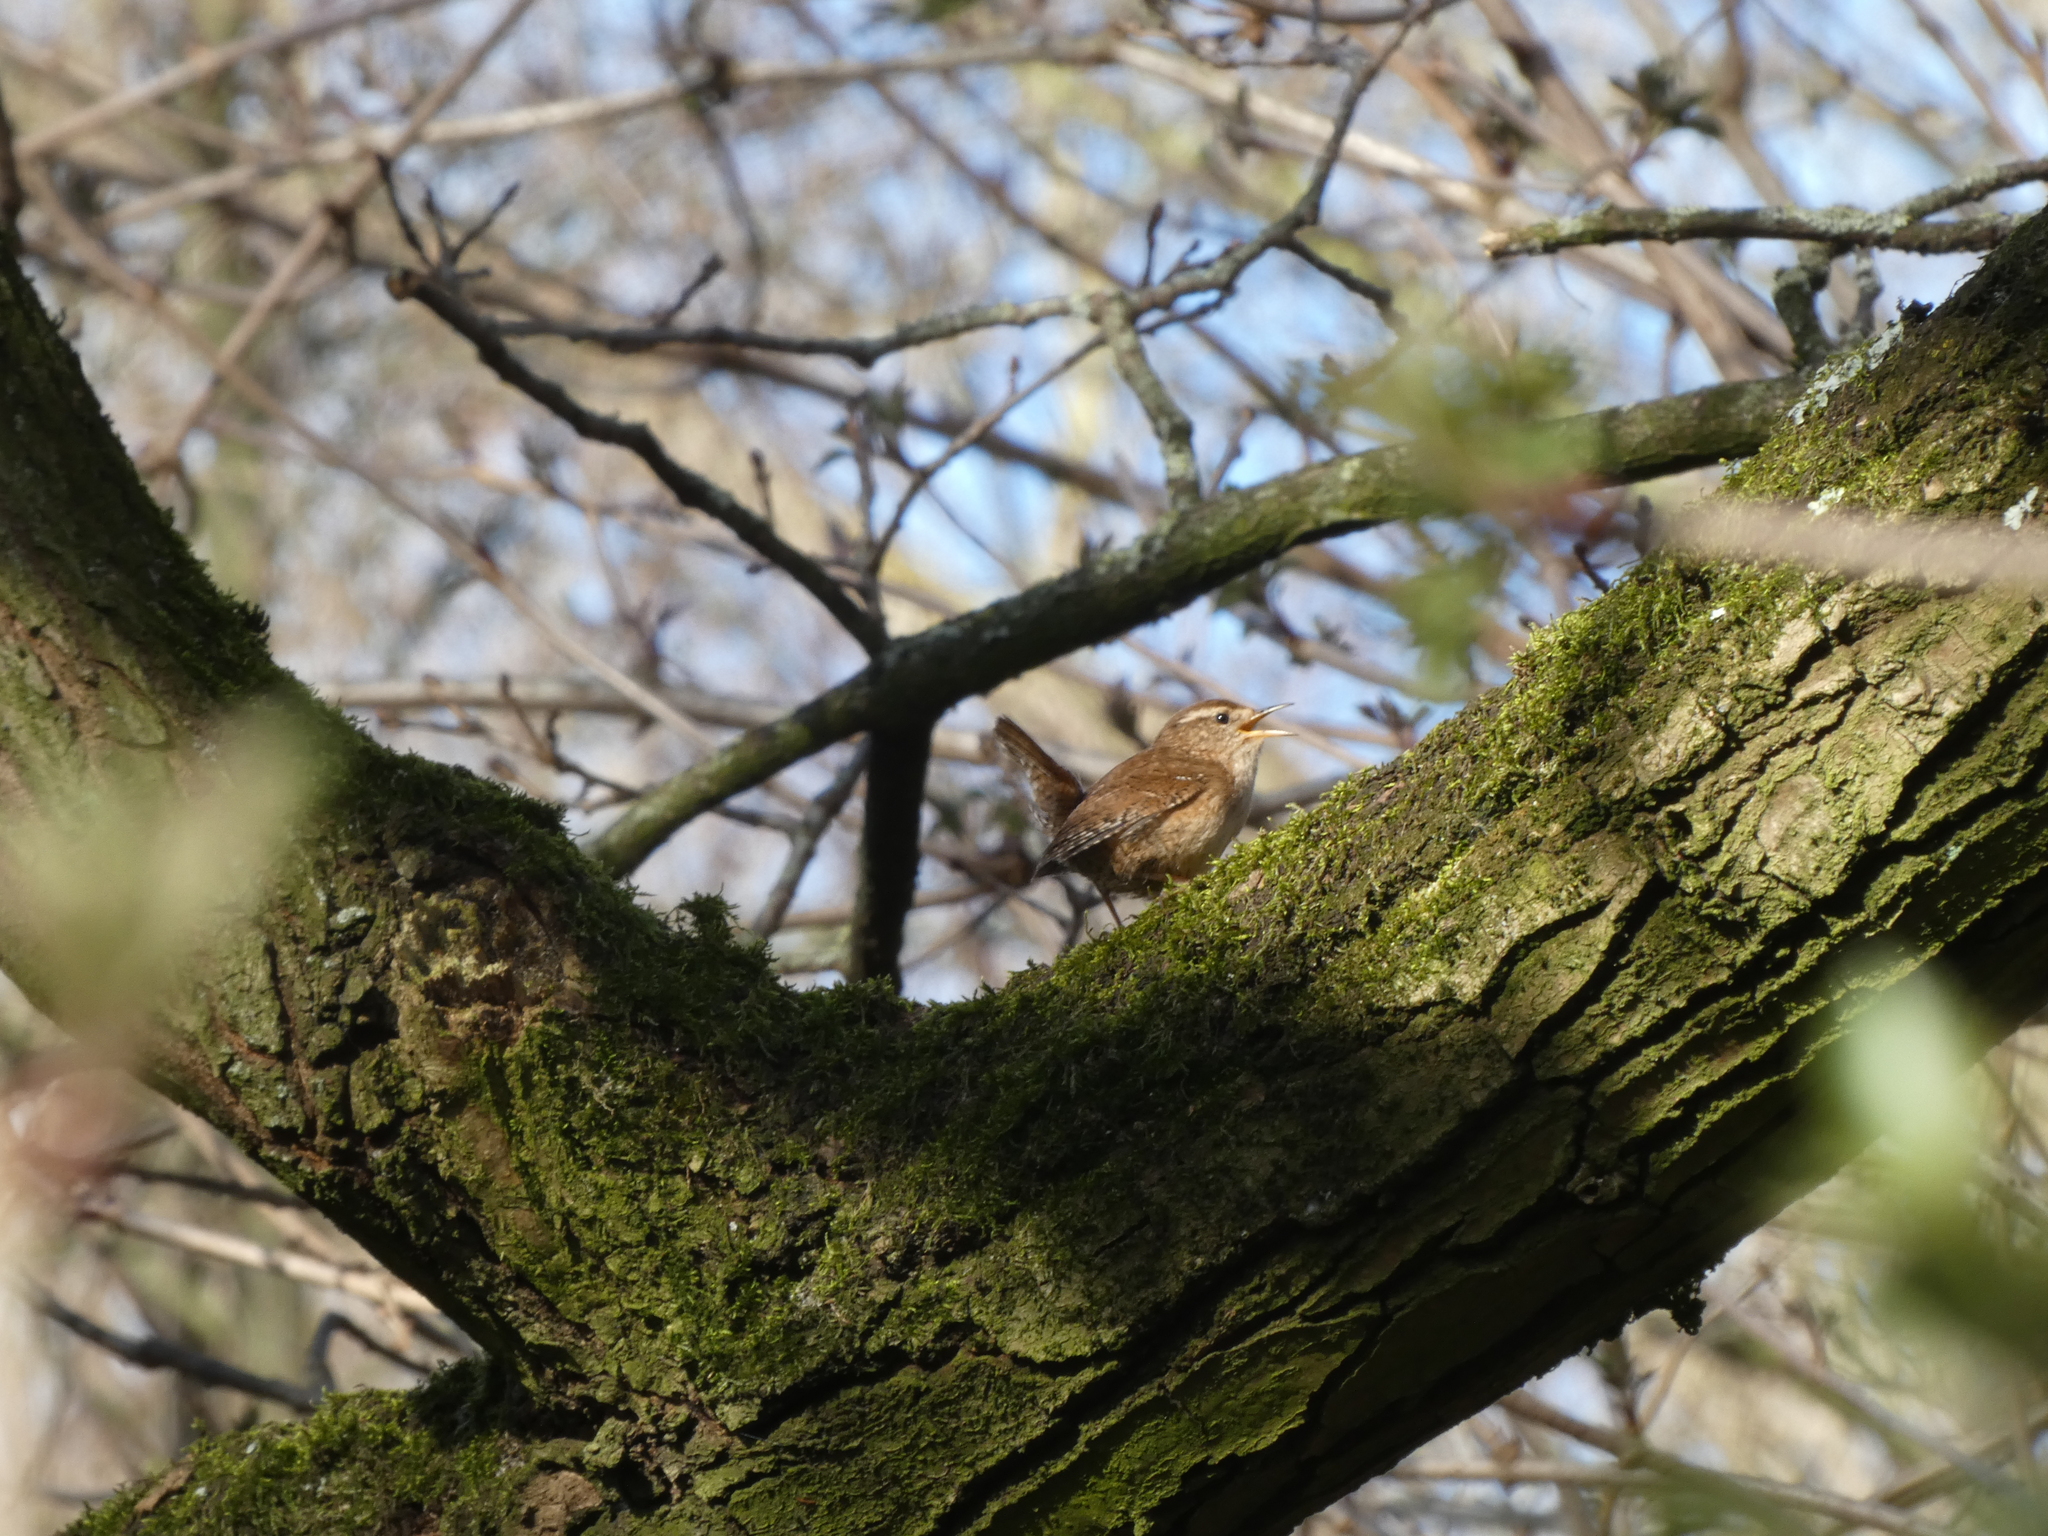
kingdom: Animalia
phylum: Chordata
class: Aves
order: Passeriformes
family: Troglodytidae
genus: Troglodytes
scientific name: Troglodytes troglodytes
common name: Eurasian wren
